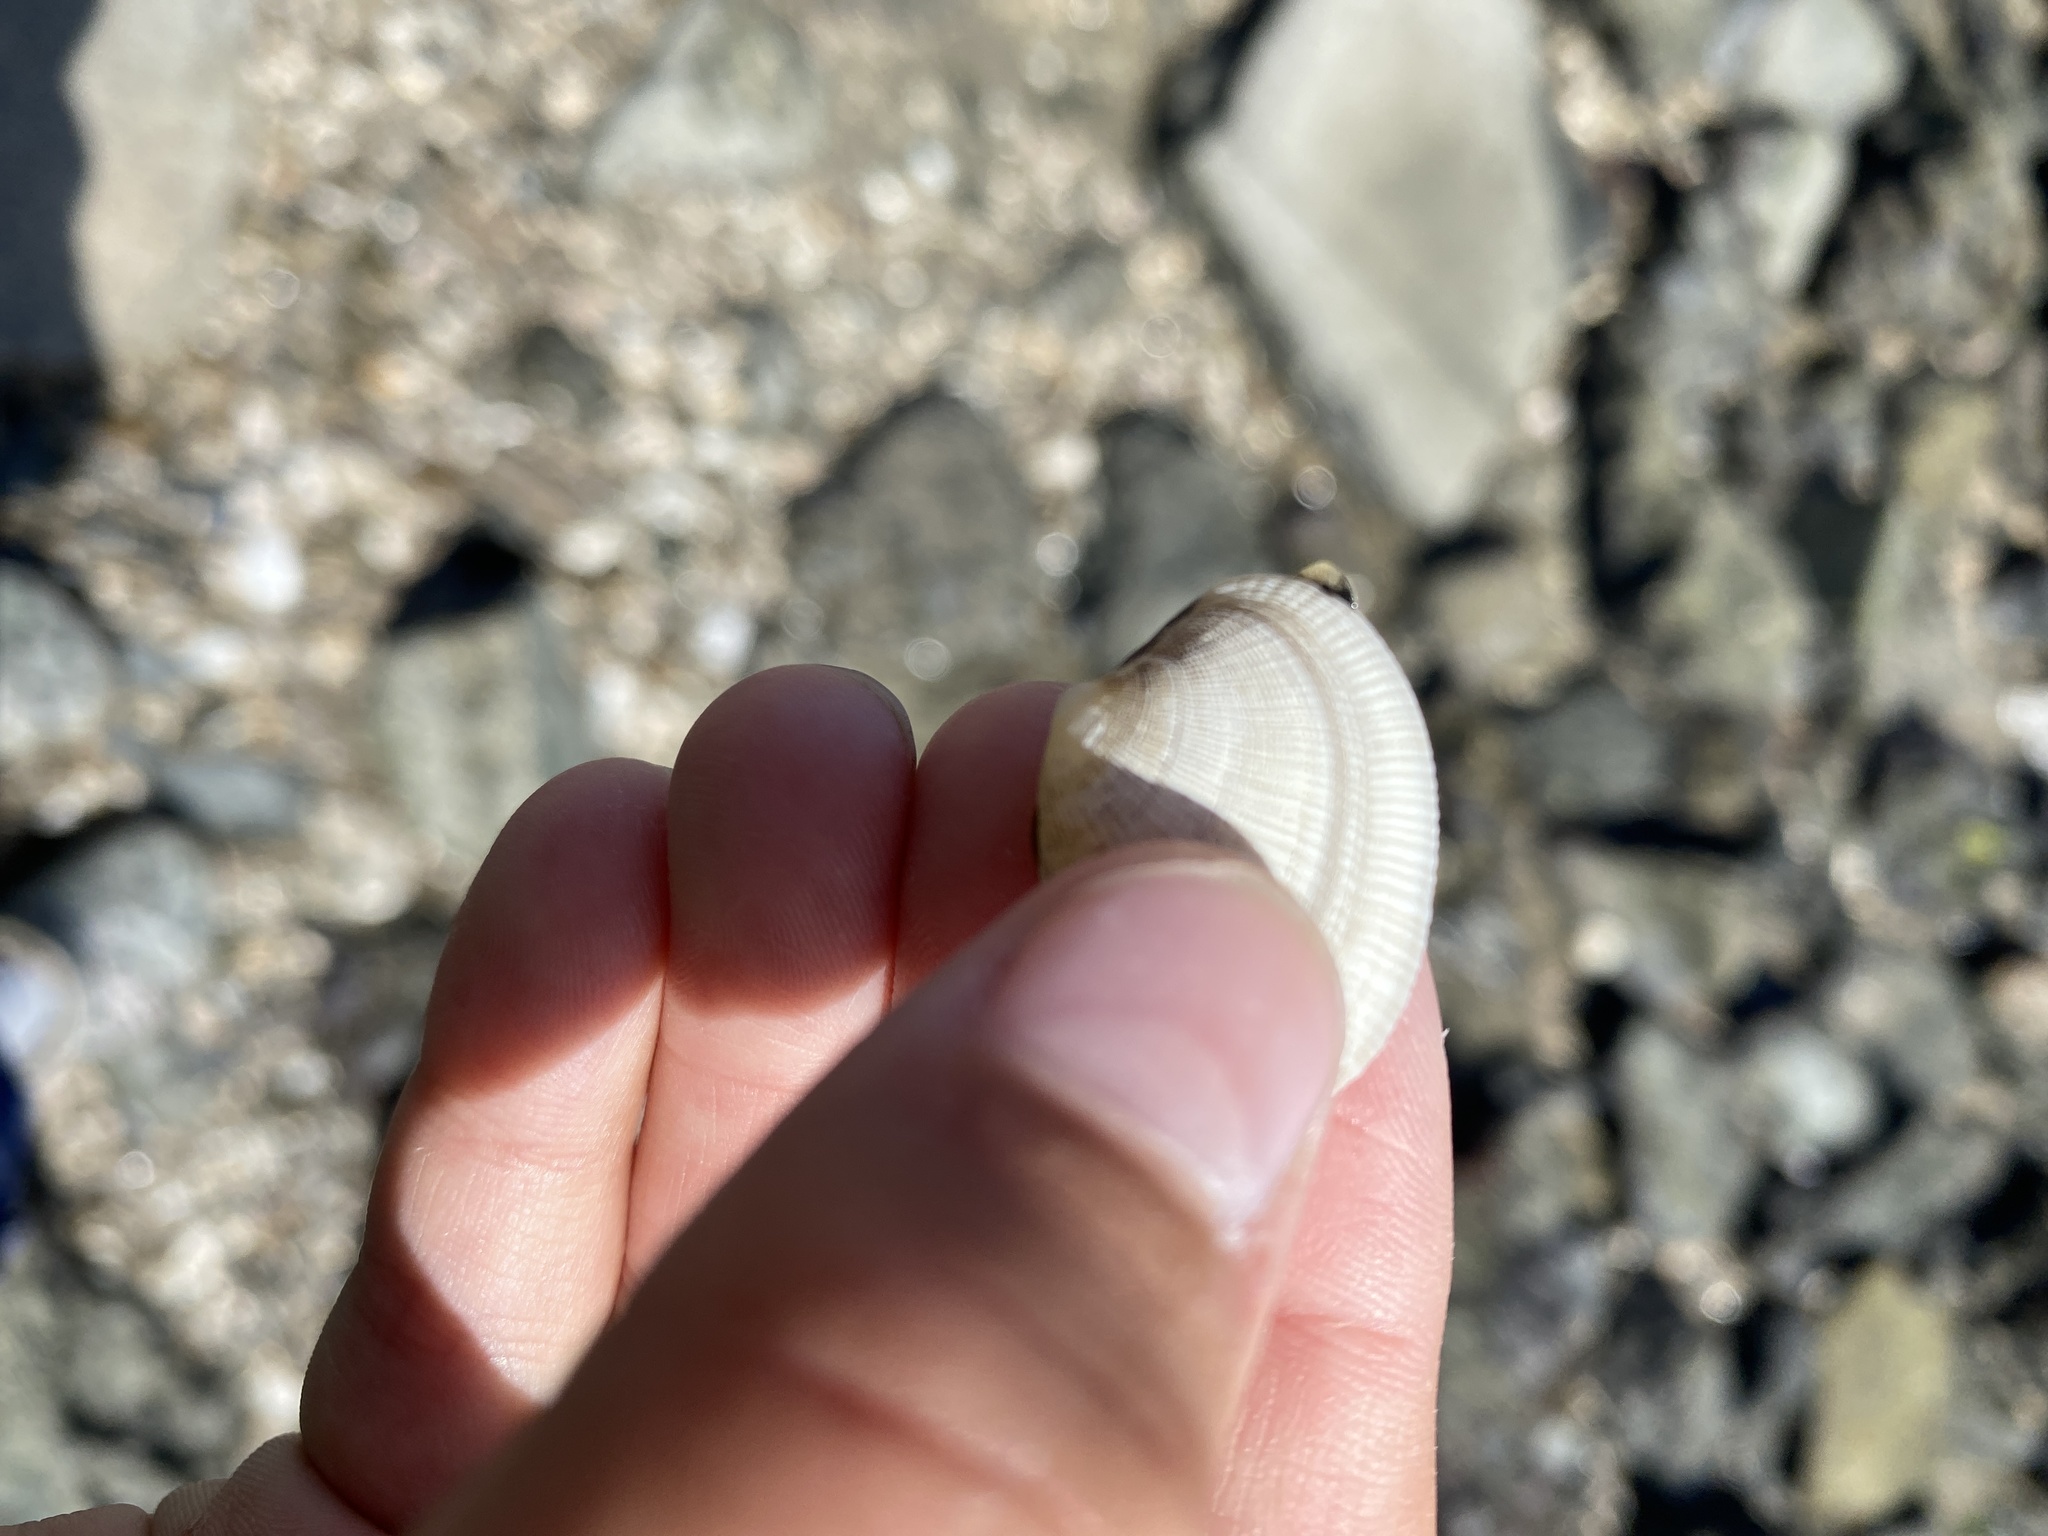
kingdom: Animalia
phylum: Mollusca
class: Bivalvia
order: Venerida
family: Veneridae
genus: Ruditapes
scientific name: Ruditapes philippinarum
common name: Manila clam
